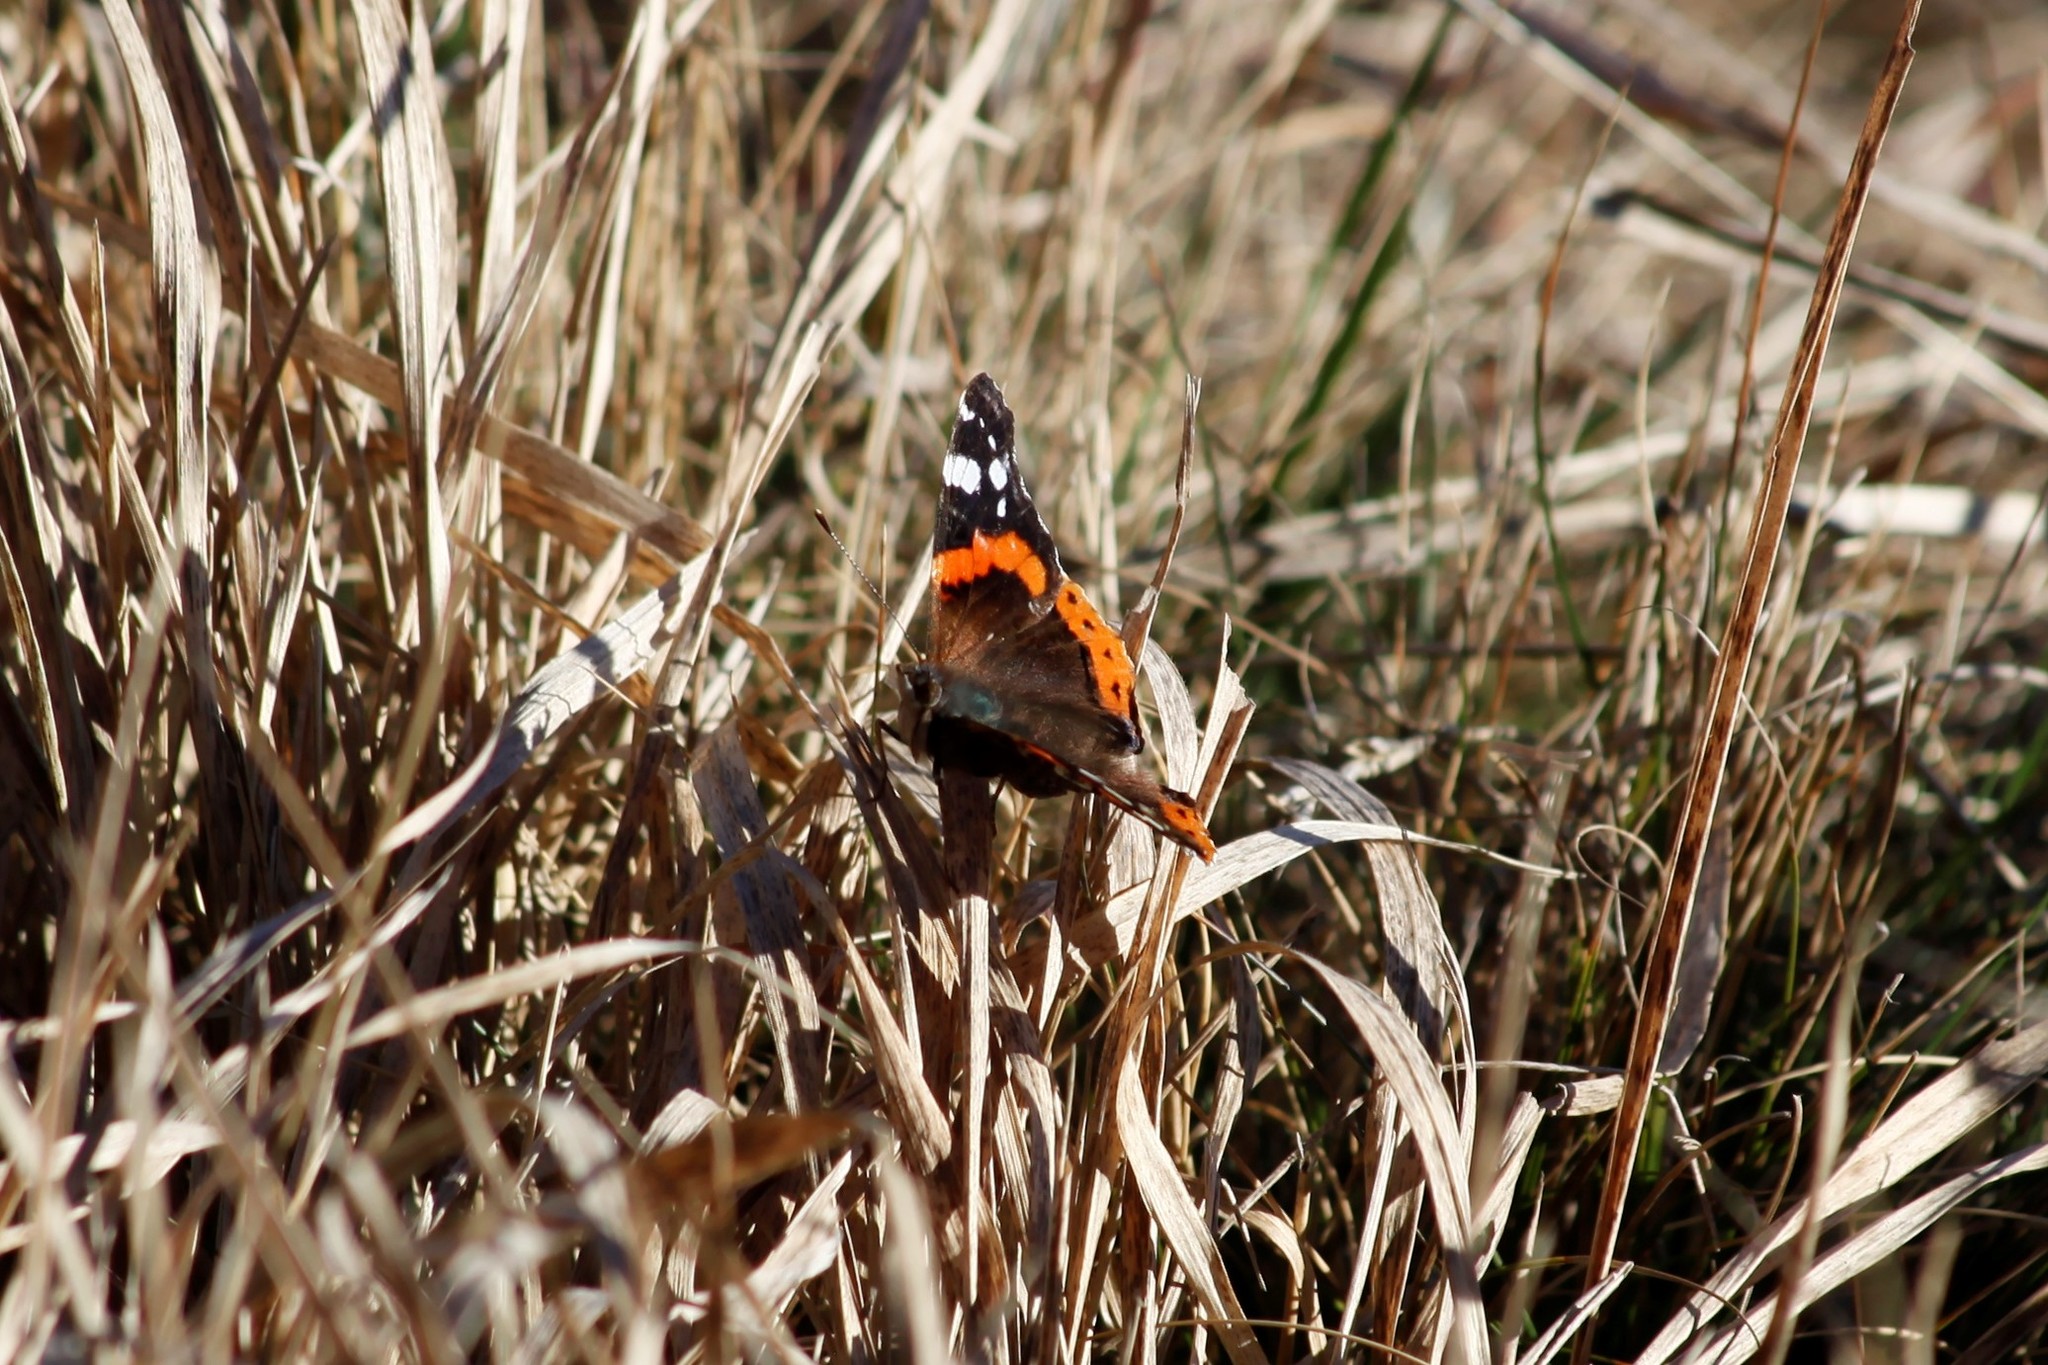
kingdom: Animalia
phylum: Arthropoda
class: Insecta
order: Lepidoptera
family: Nymphalidae
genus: Vanessa
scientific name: Vanessa atalanta
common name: Red admiral
